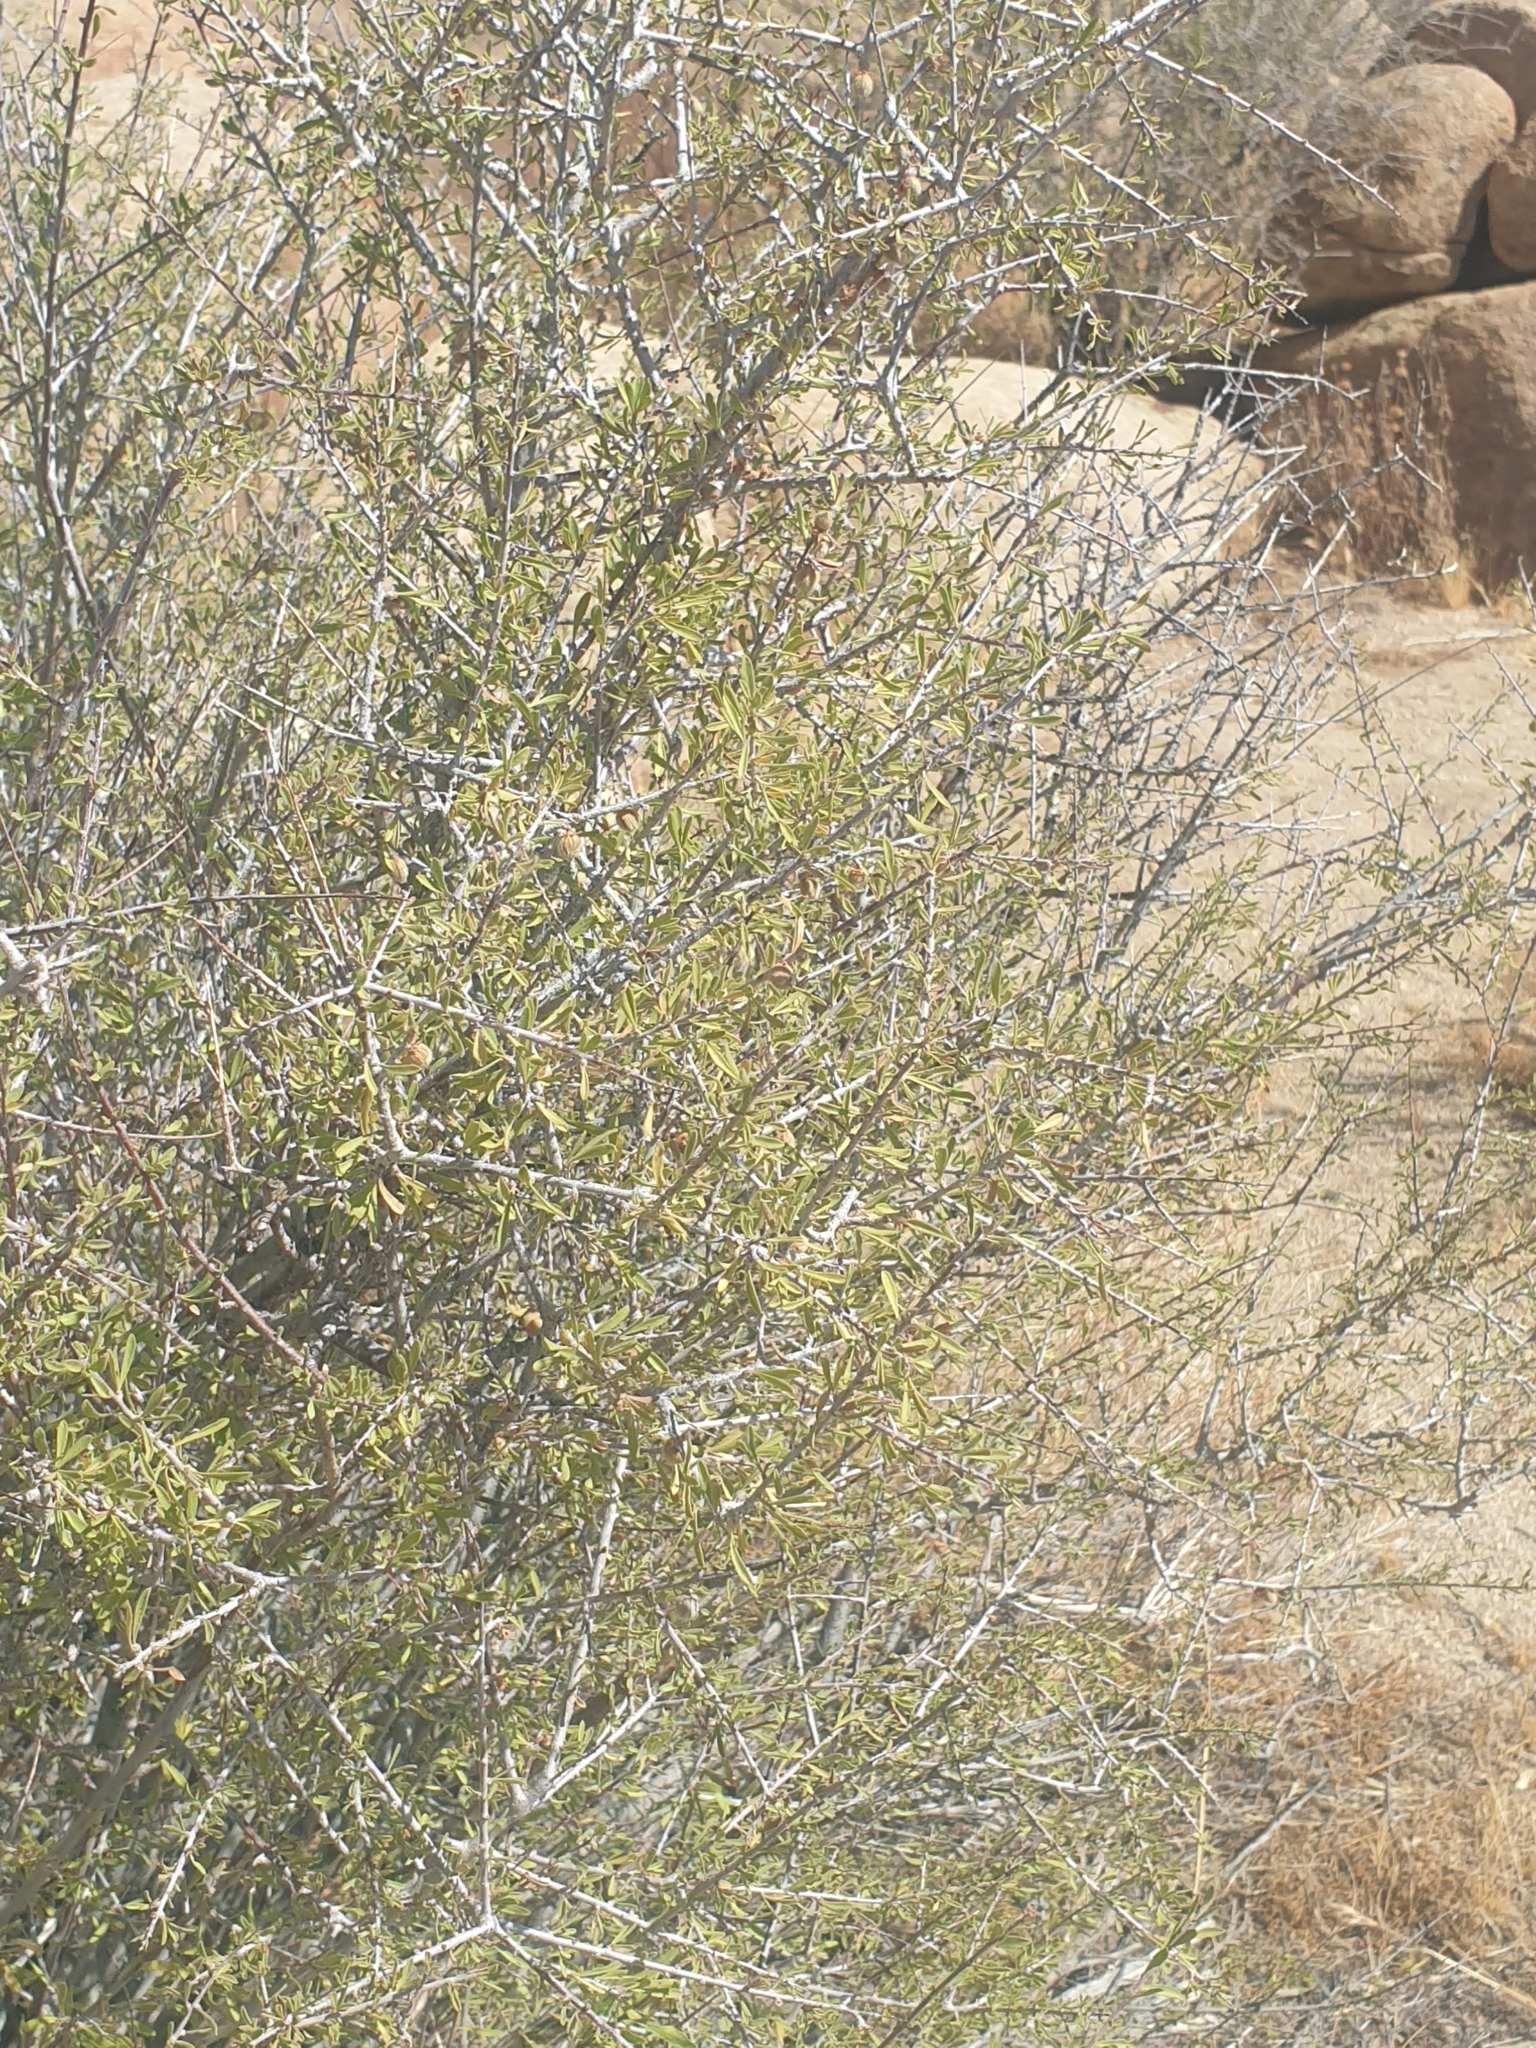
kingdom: Plantae
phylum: Tracheophyta
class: Magnoliopsida
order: Rosales
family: Rosaceae
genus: Prunus
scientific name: Prunus fasciculata
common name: Desert almond
